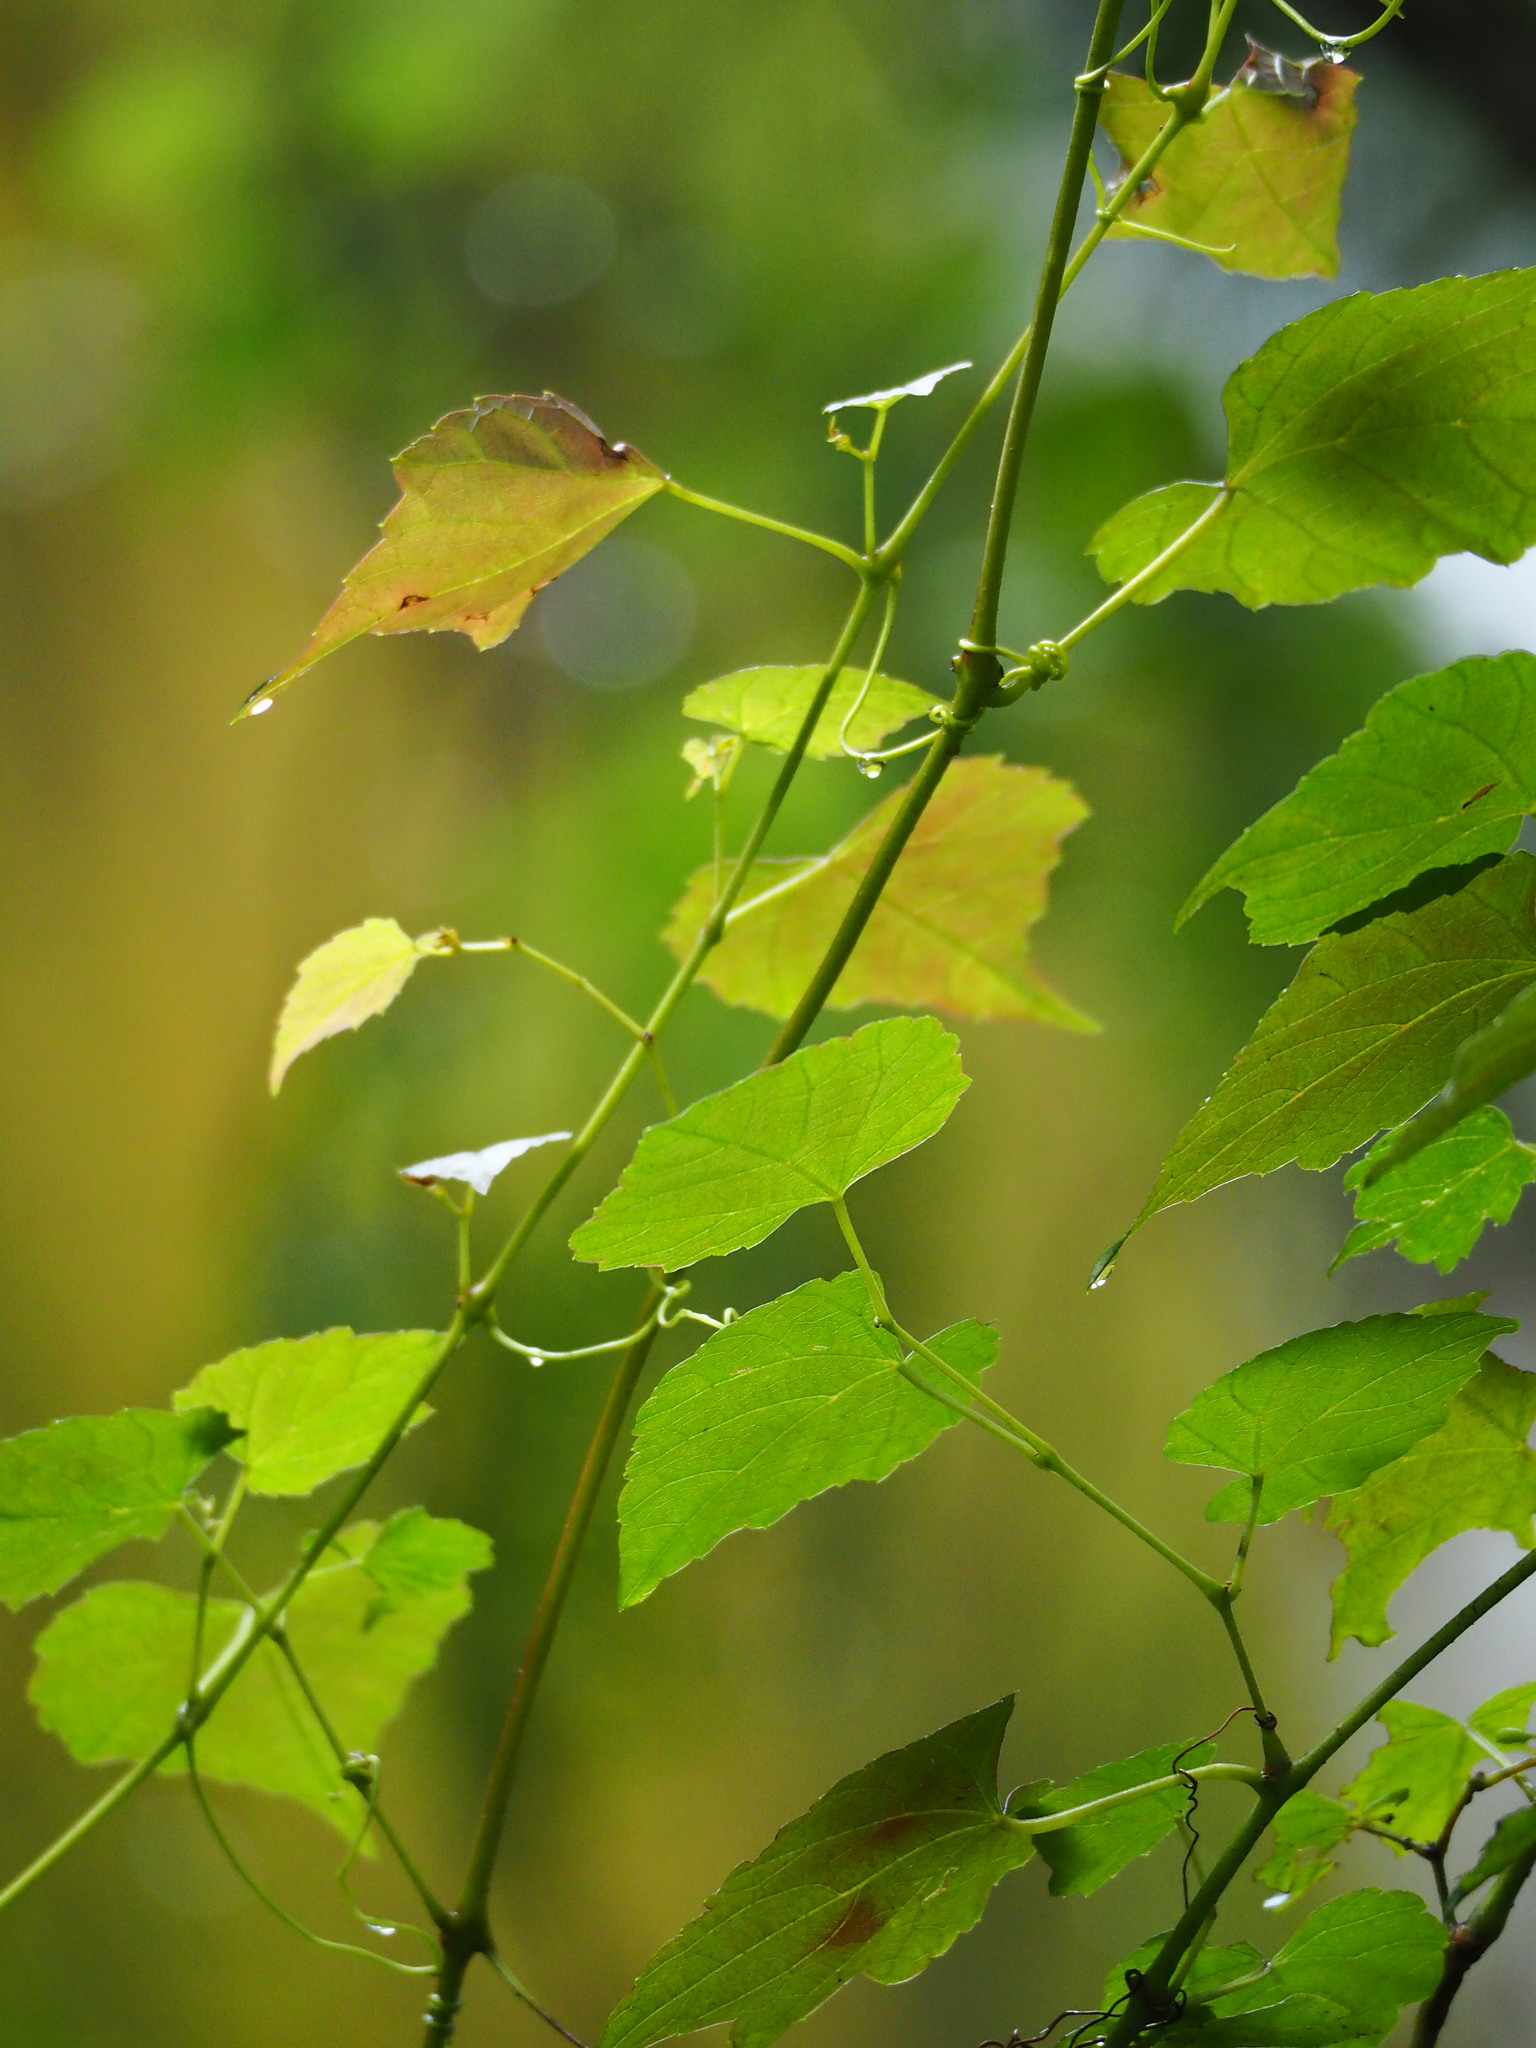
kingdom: Plantae
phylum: Tracheophyta
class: Magnoliopsida
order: Vitales
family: Vitaceae
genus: Ampelopsis
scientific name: Ampelopsis glandulosa
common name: Amur peppervine
